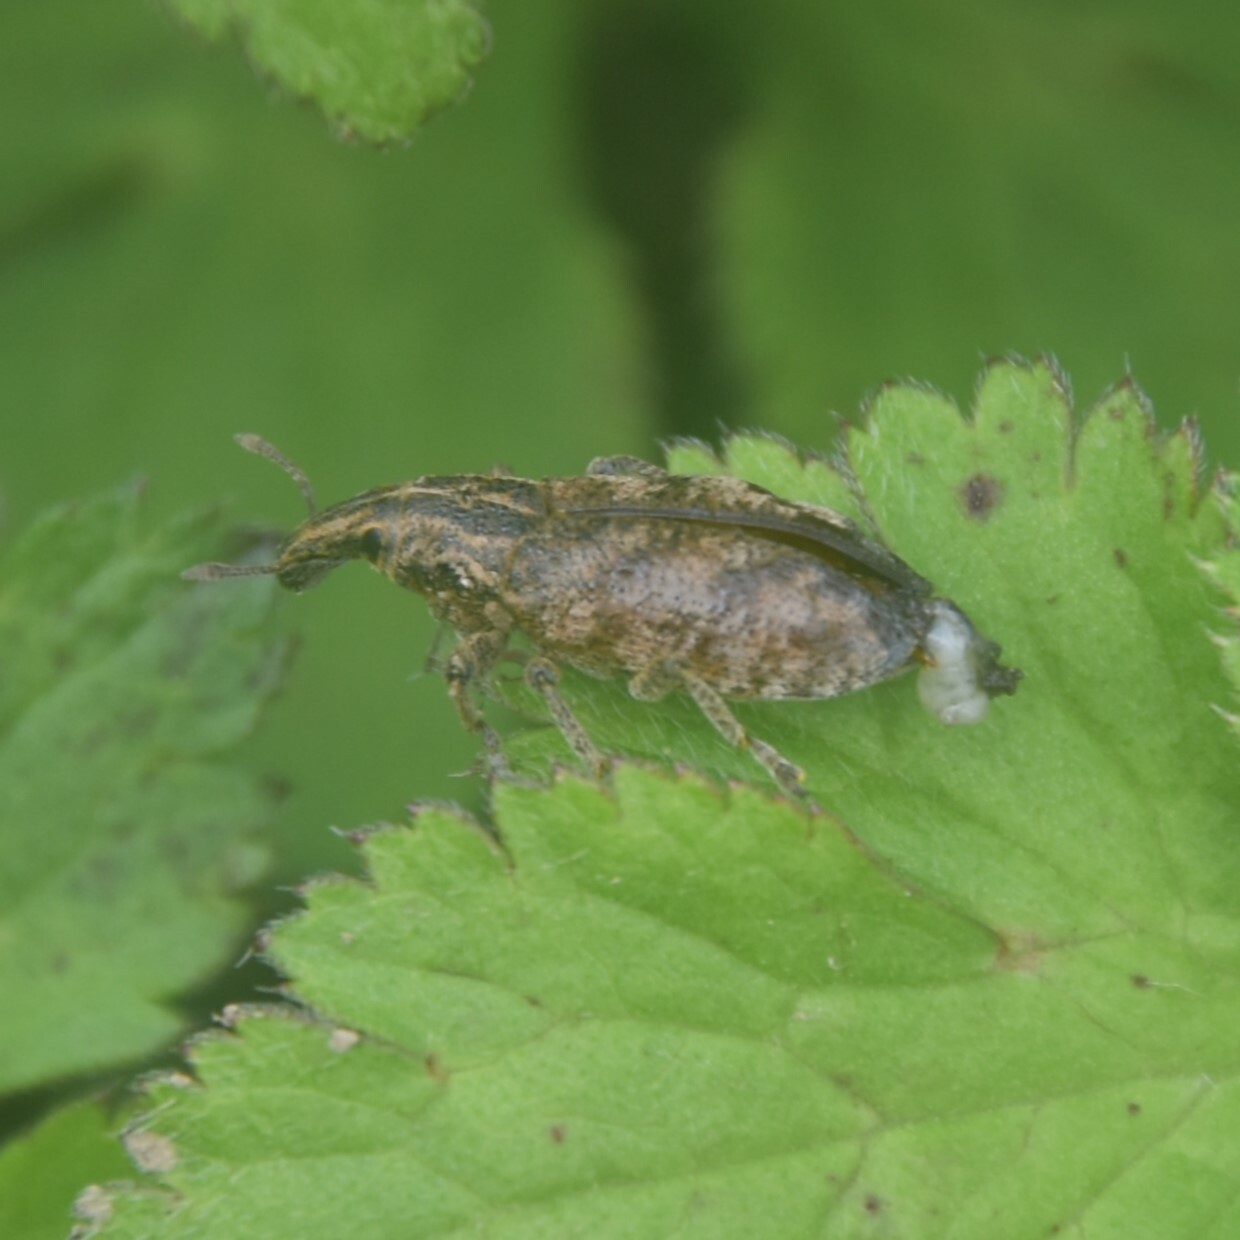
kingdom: Animalia
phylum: Arthropoda
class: Insecta
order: Coleoptera
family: Curculionidae
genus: Cleonis
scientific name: Cleonis pigra
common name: Large thistle weevil
